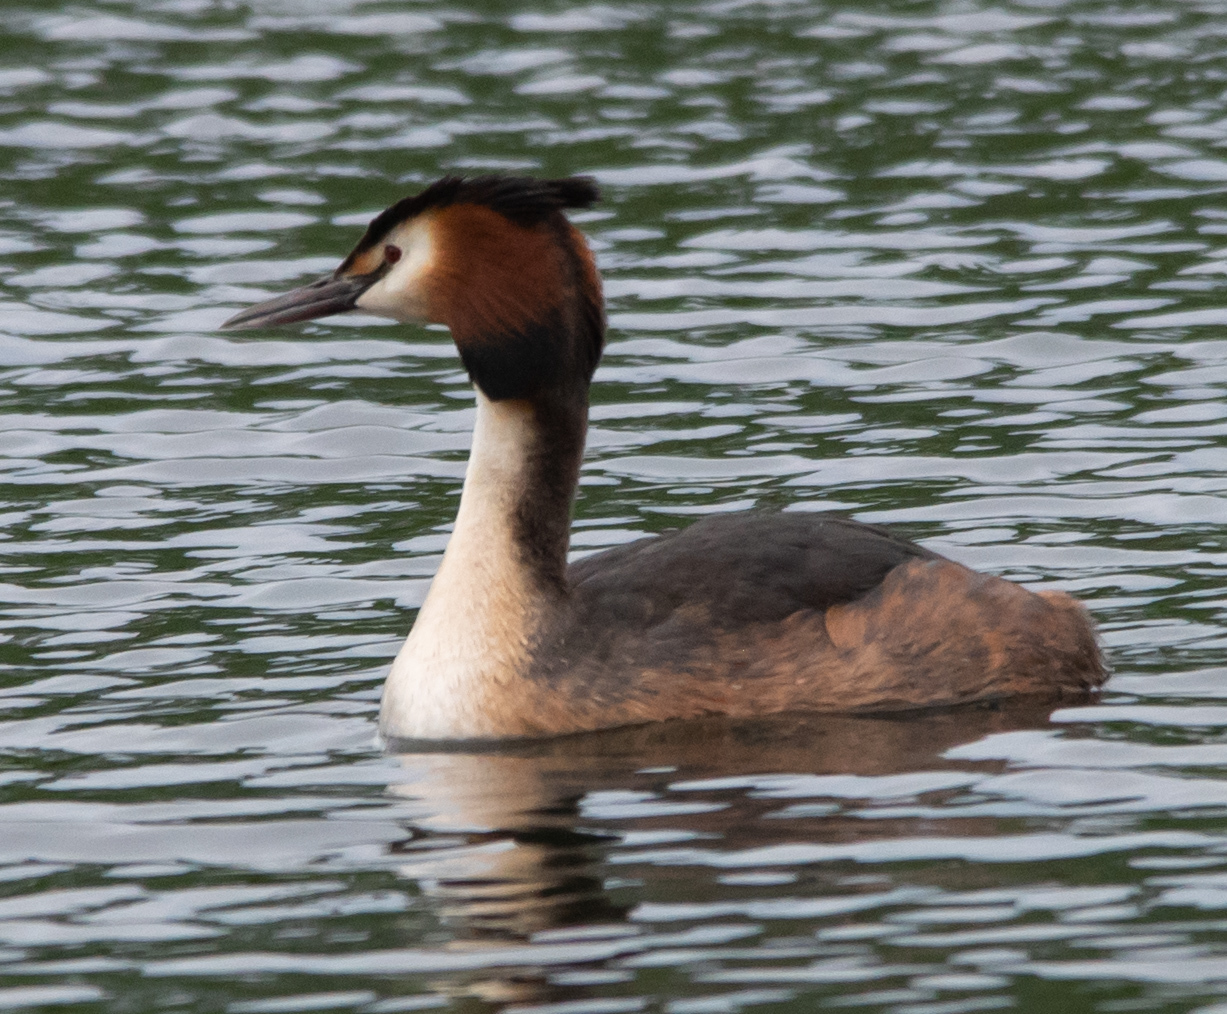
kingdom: Animalia
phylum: Chordata
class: Aves
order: Podicipediformes
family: Podicipedidae
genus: Podiceps
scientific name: Podiceps cristatus
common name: Great crested grebe
